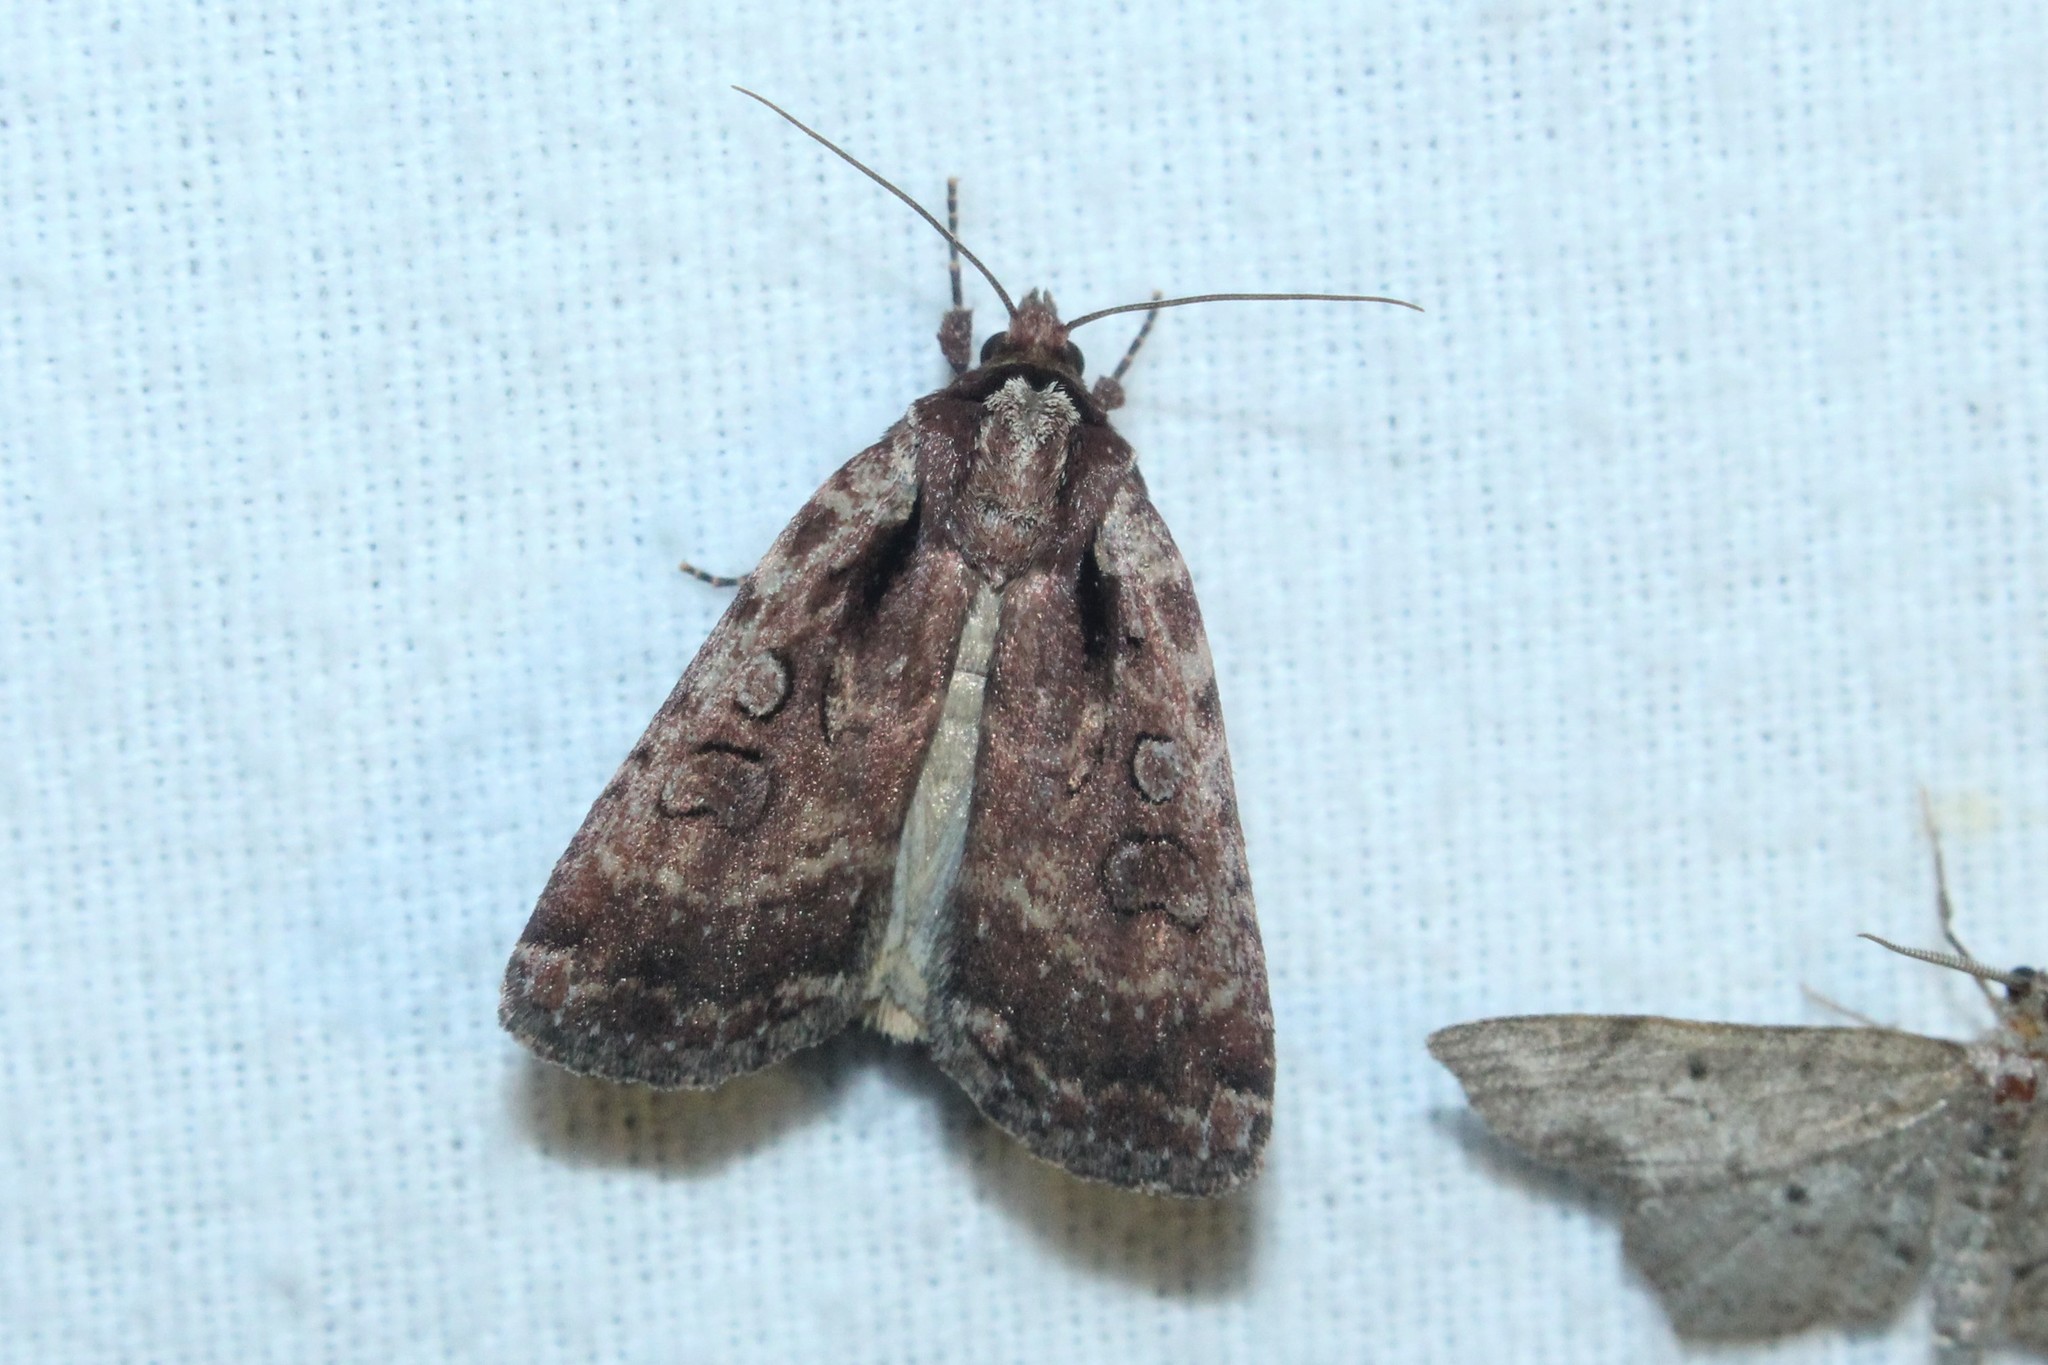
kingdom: Animalia
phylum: Arthropoda
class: Insecta
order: Lepidoptera
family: Noctuidae
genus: Eueretagrotis
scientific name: Eueretagrotis attentus
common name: Attentive dart
